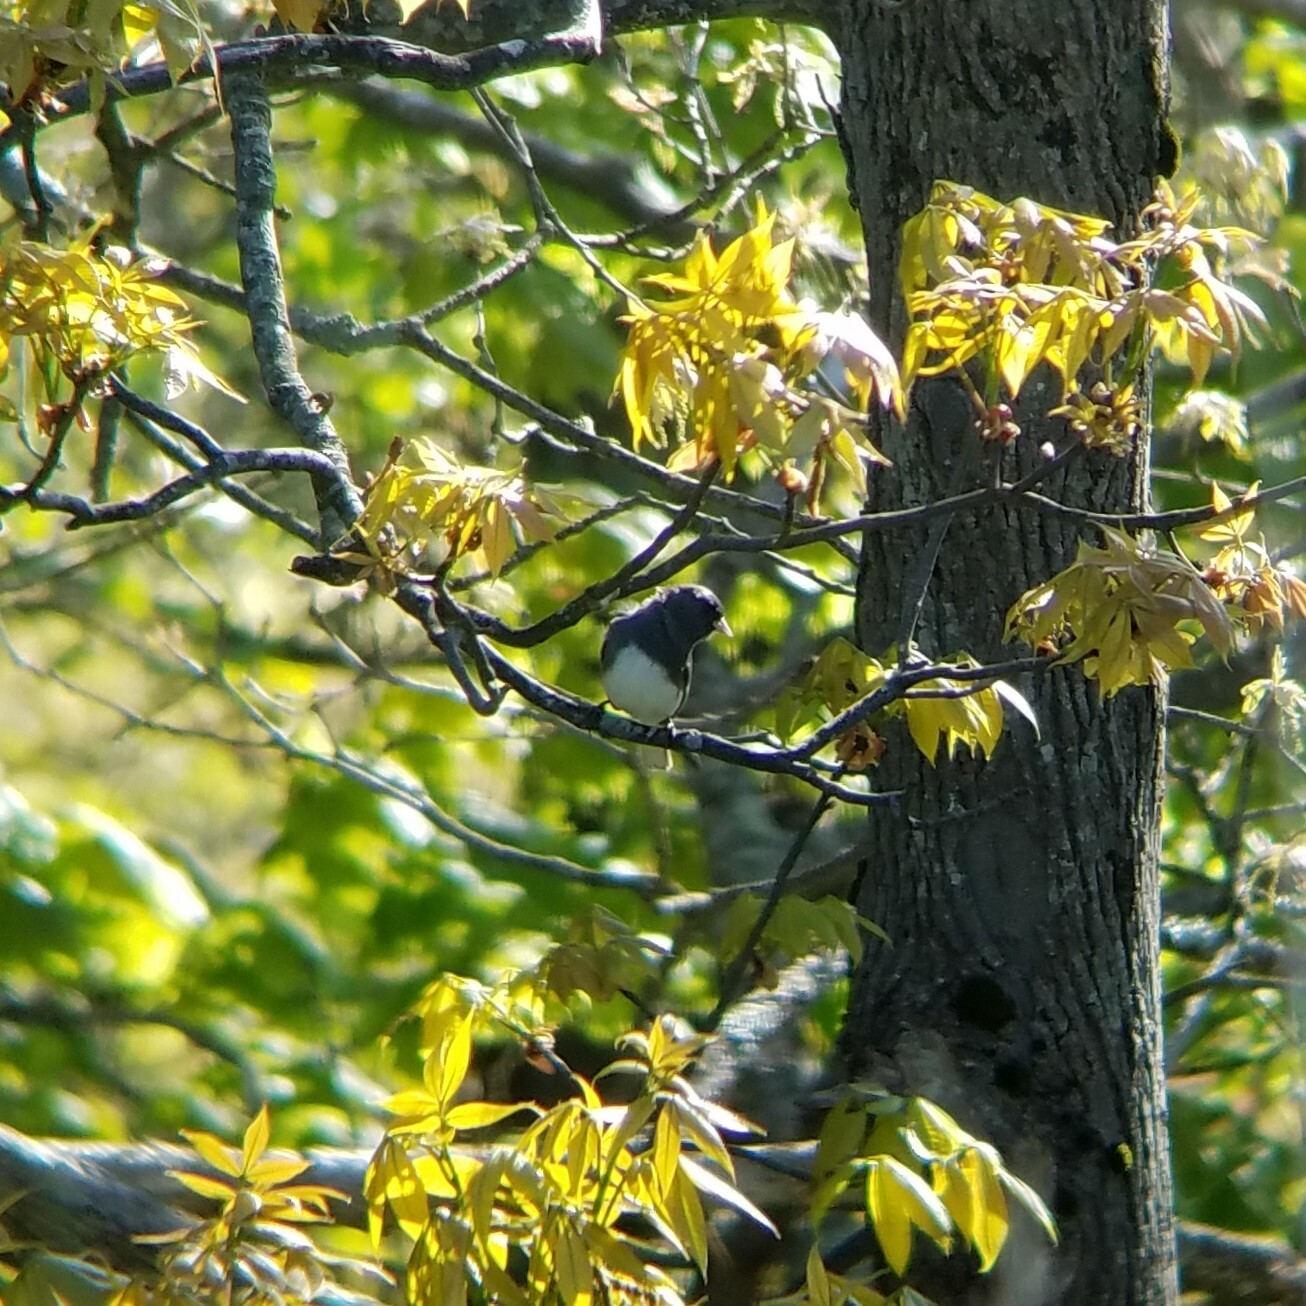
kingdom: Animalia
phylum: Chordata
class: Aves
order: Passeriformes
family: Passerellidae
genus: Junco
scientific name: Junco hyemalis
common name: Dark-eyed junco
